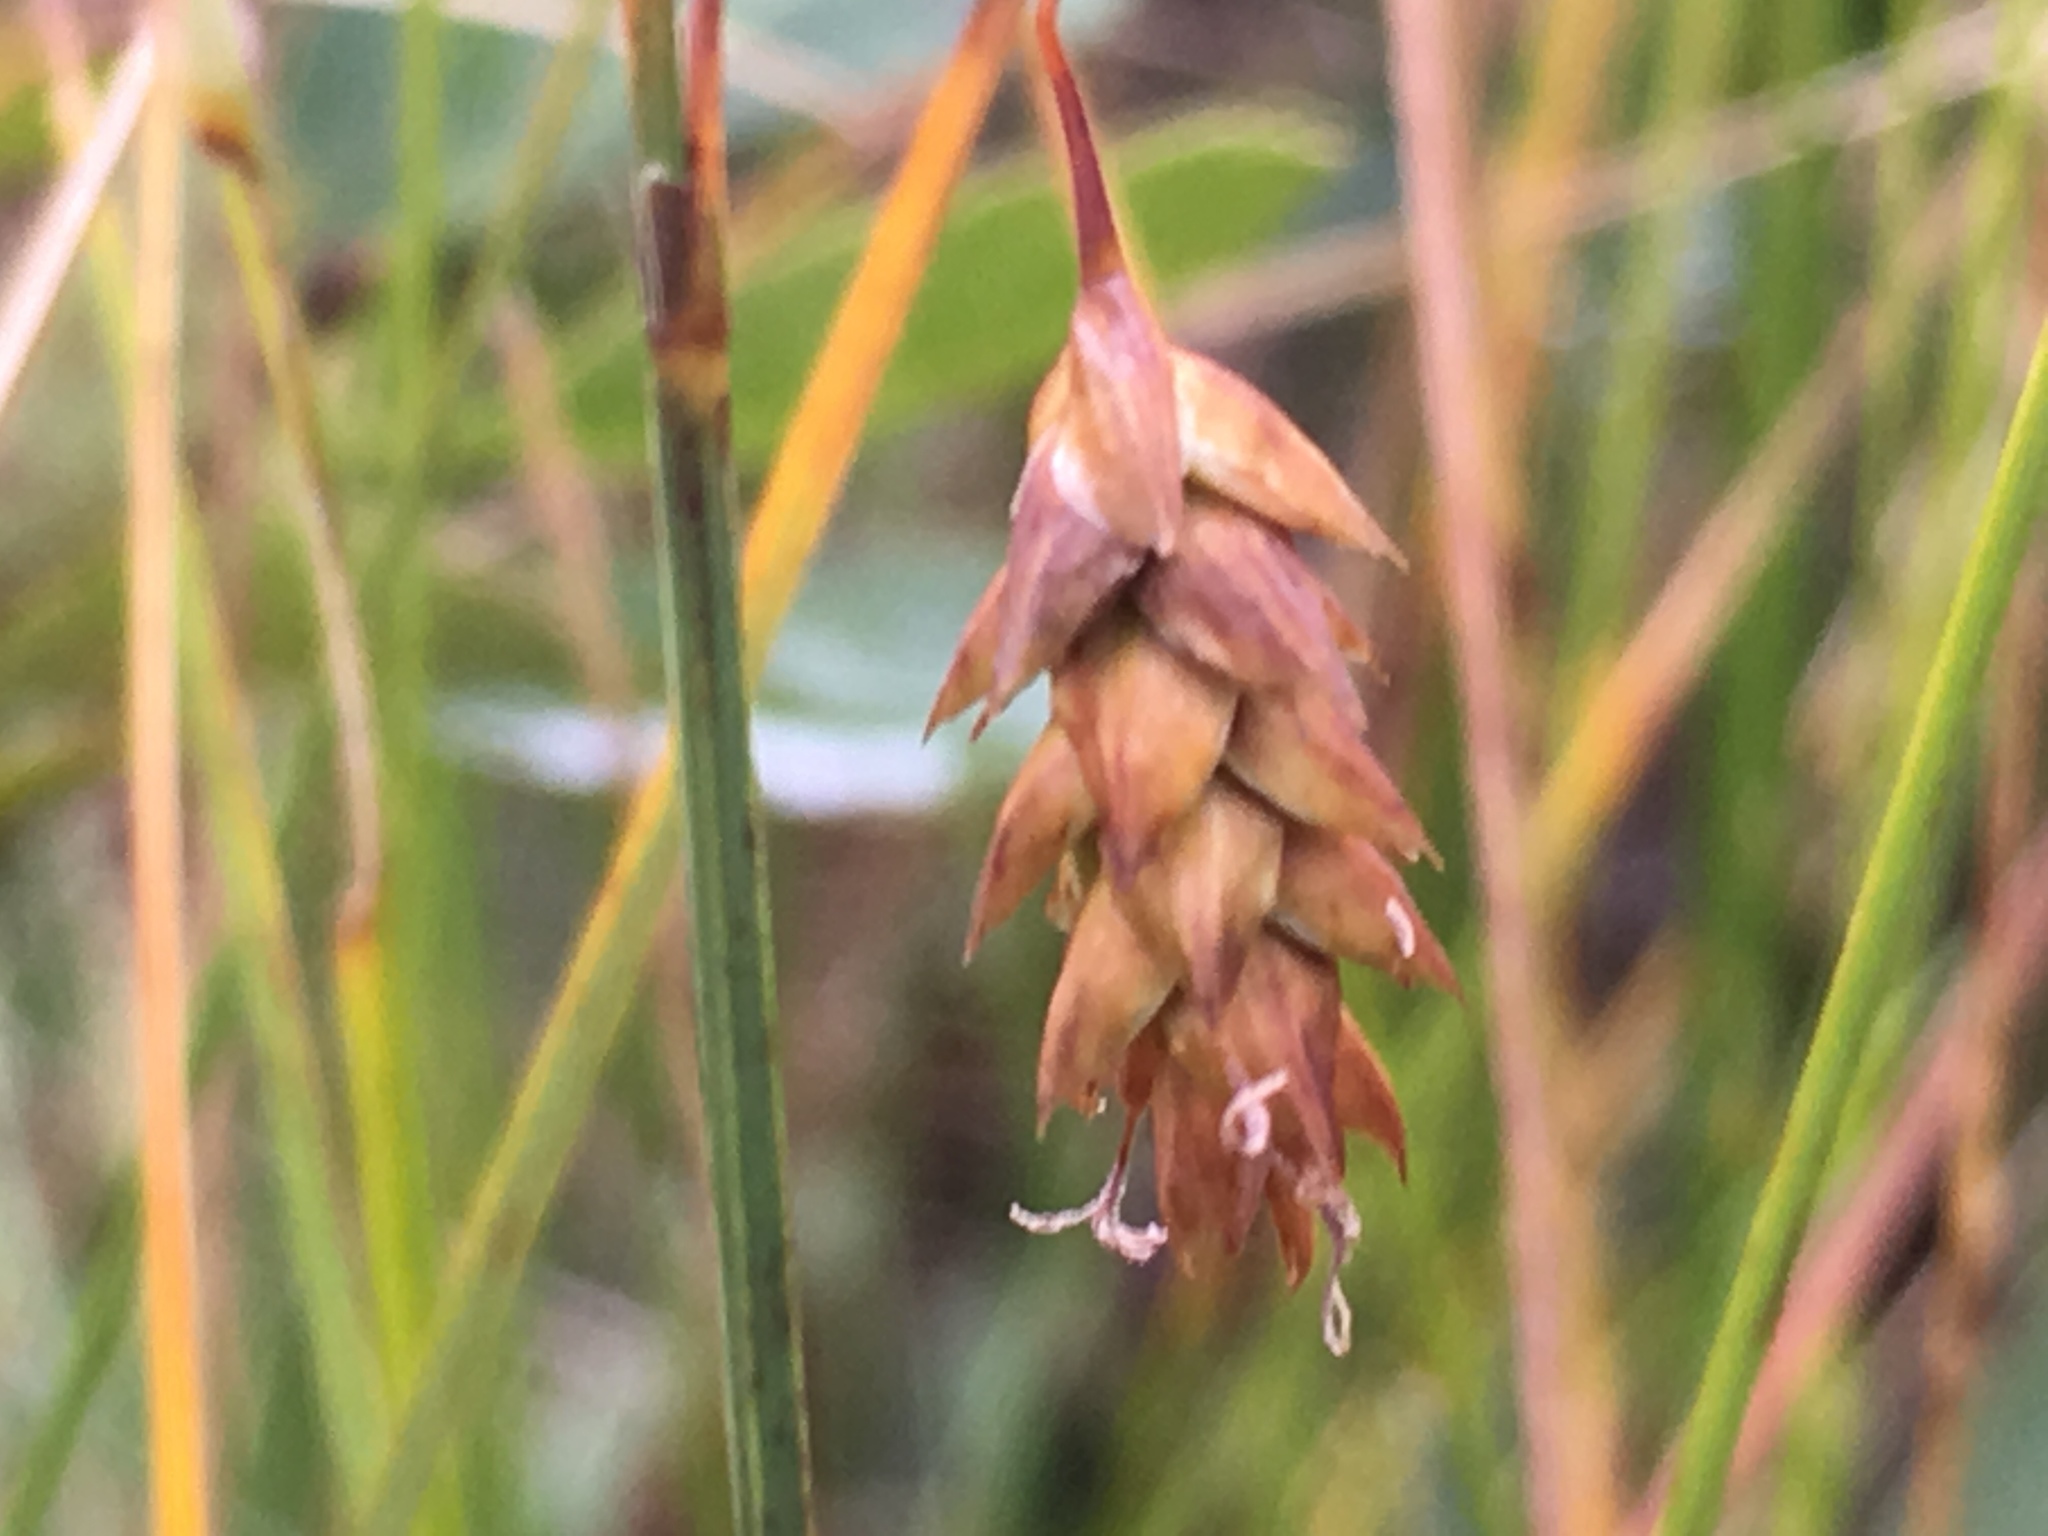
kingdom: Plantae
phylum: Tracheophyta
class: Liliopsida
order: Poales
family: Cyperaceae
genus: Carex
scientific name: Carex limosa
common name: Bog sedge
